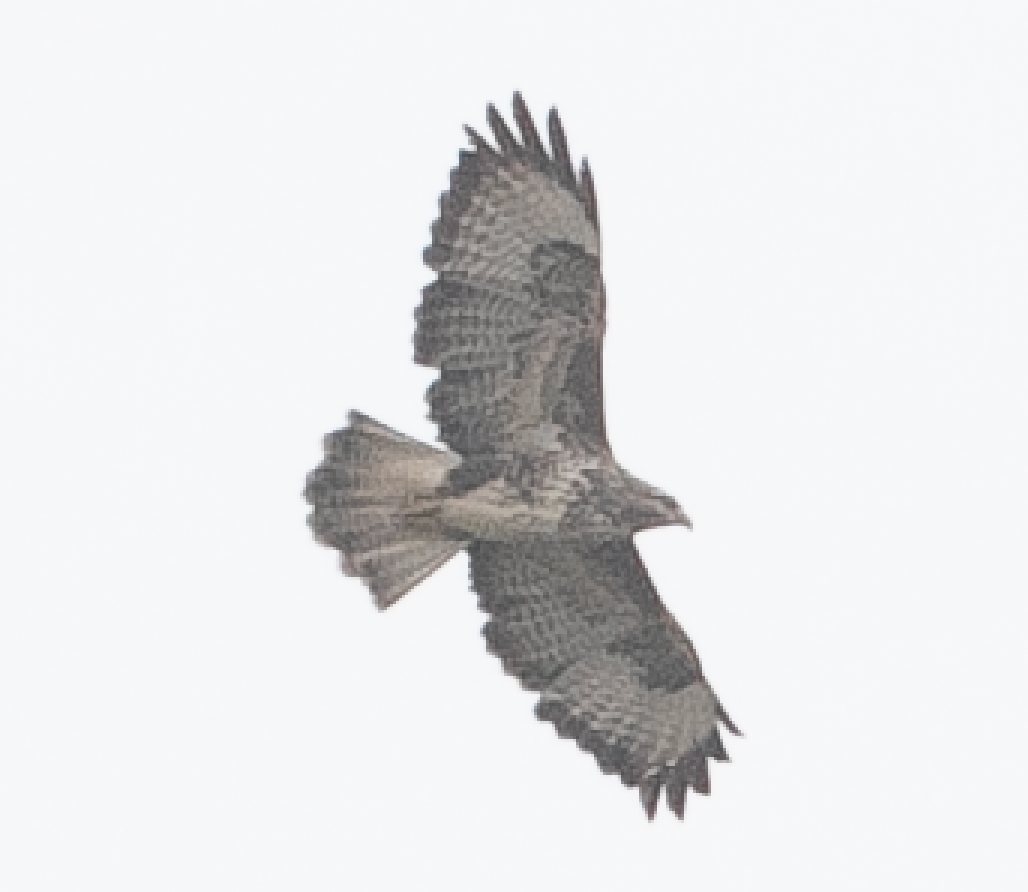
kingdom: Animalia
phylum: Chordata
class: Aves
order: Accipitriformes
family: Accipitridae
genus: Buteo
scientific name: Buteo buteo
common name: Common buzzard
